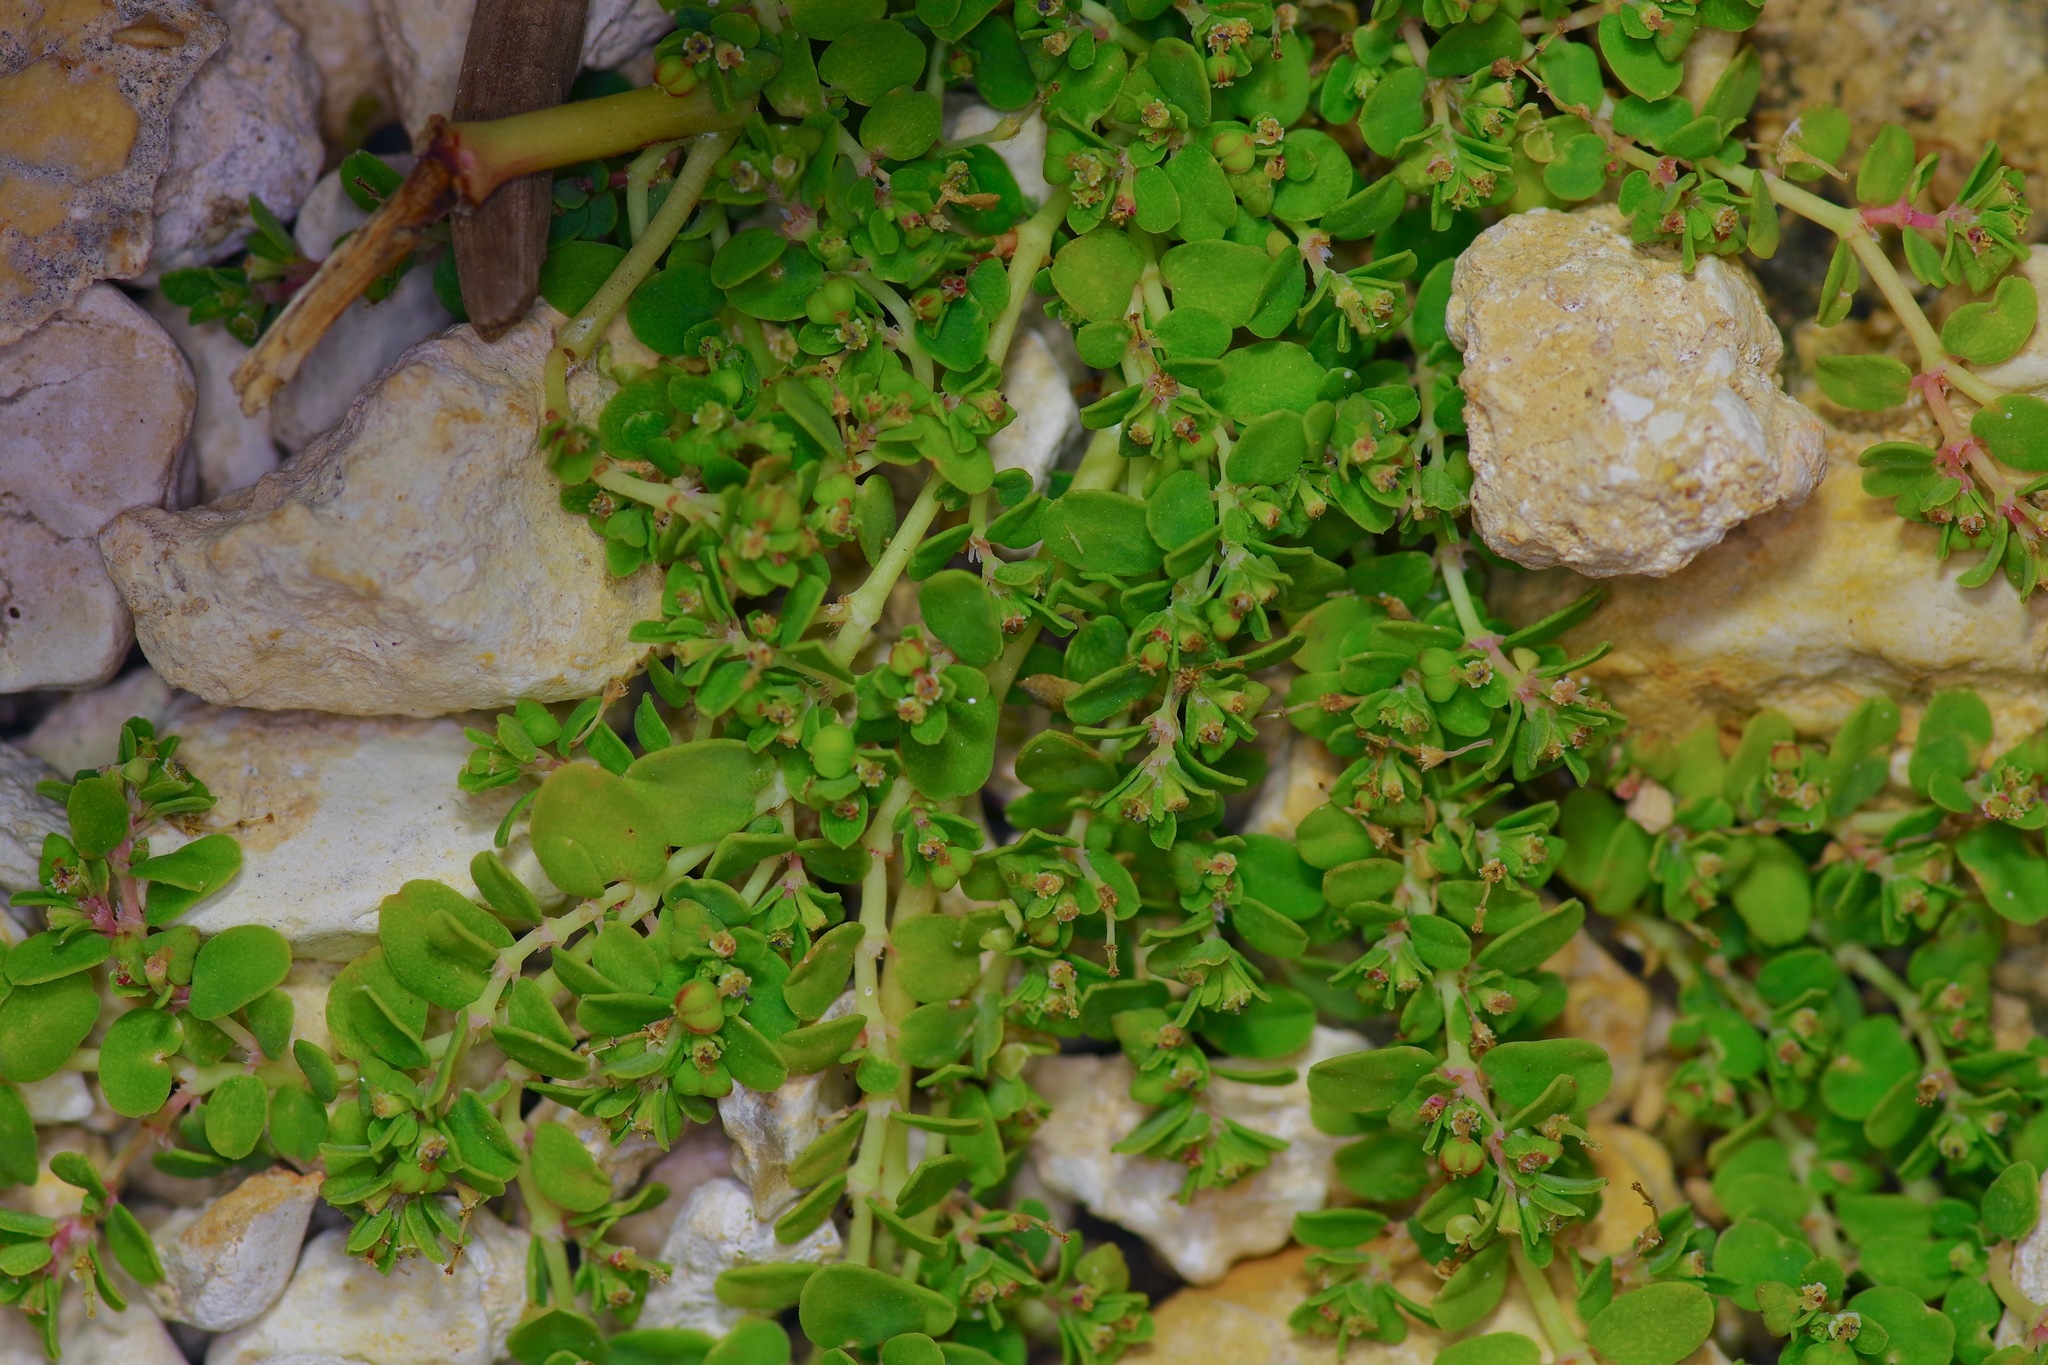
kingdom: Plantae
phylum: Tracheophyta
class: Magnoliopsida
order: Malpighiales
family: Euphorbiaceae
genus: Euphorbia
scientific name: Euphorbia serpens
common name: Matted sandmat
